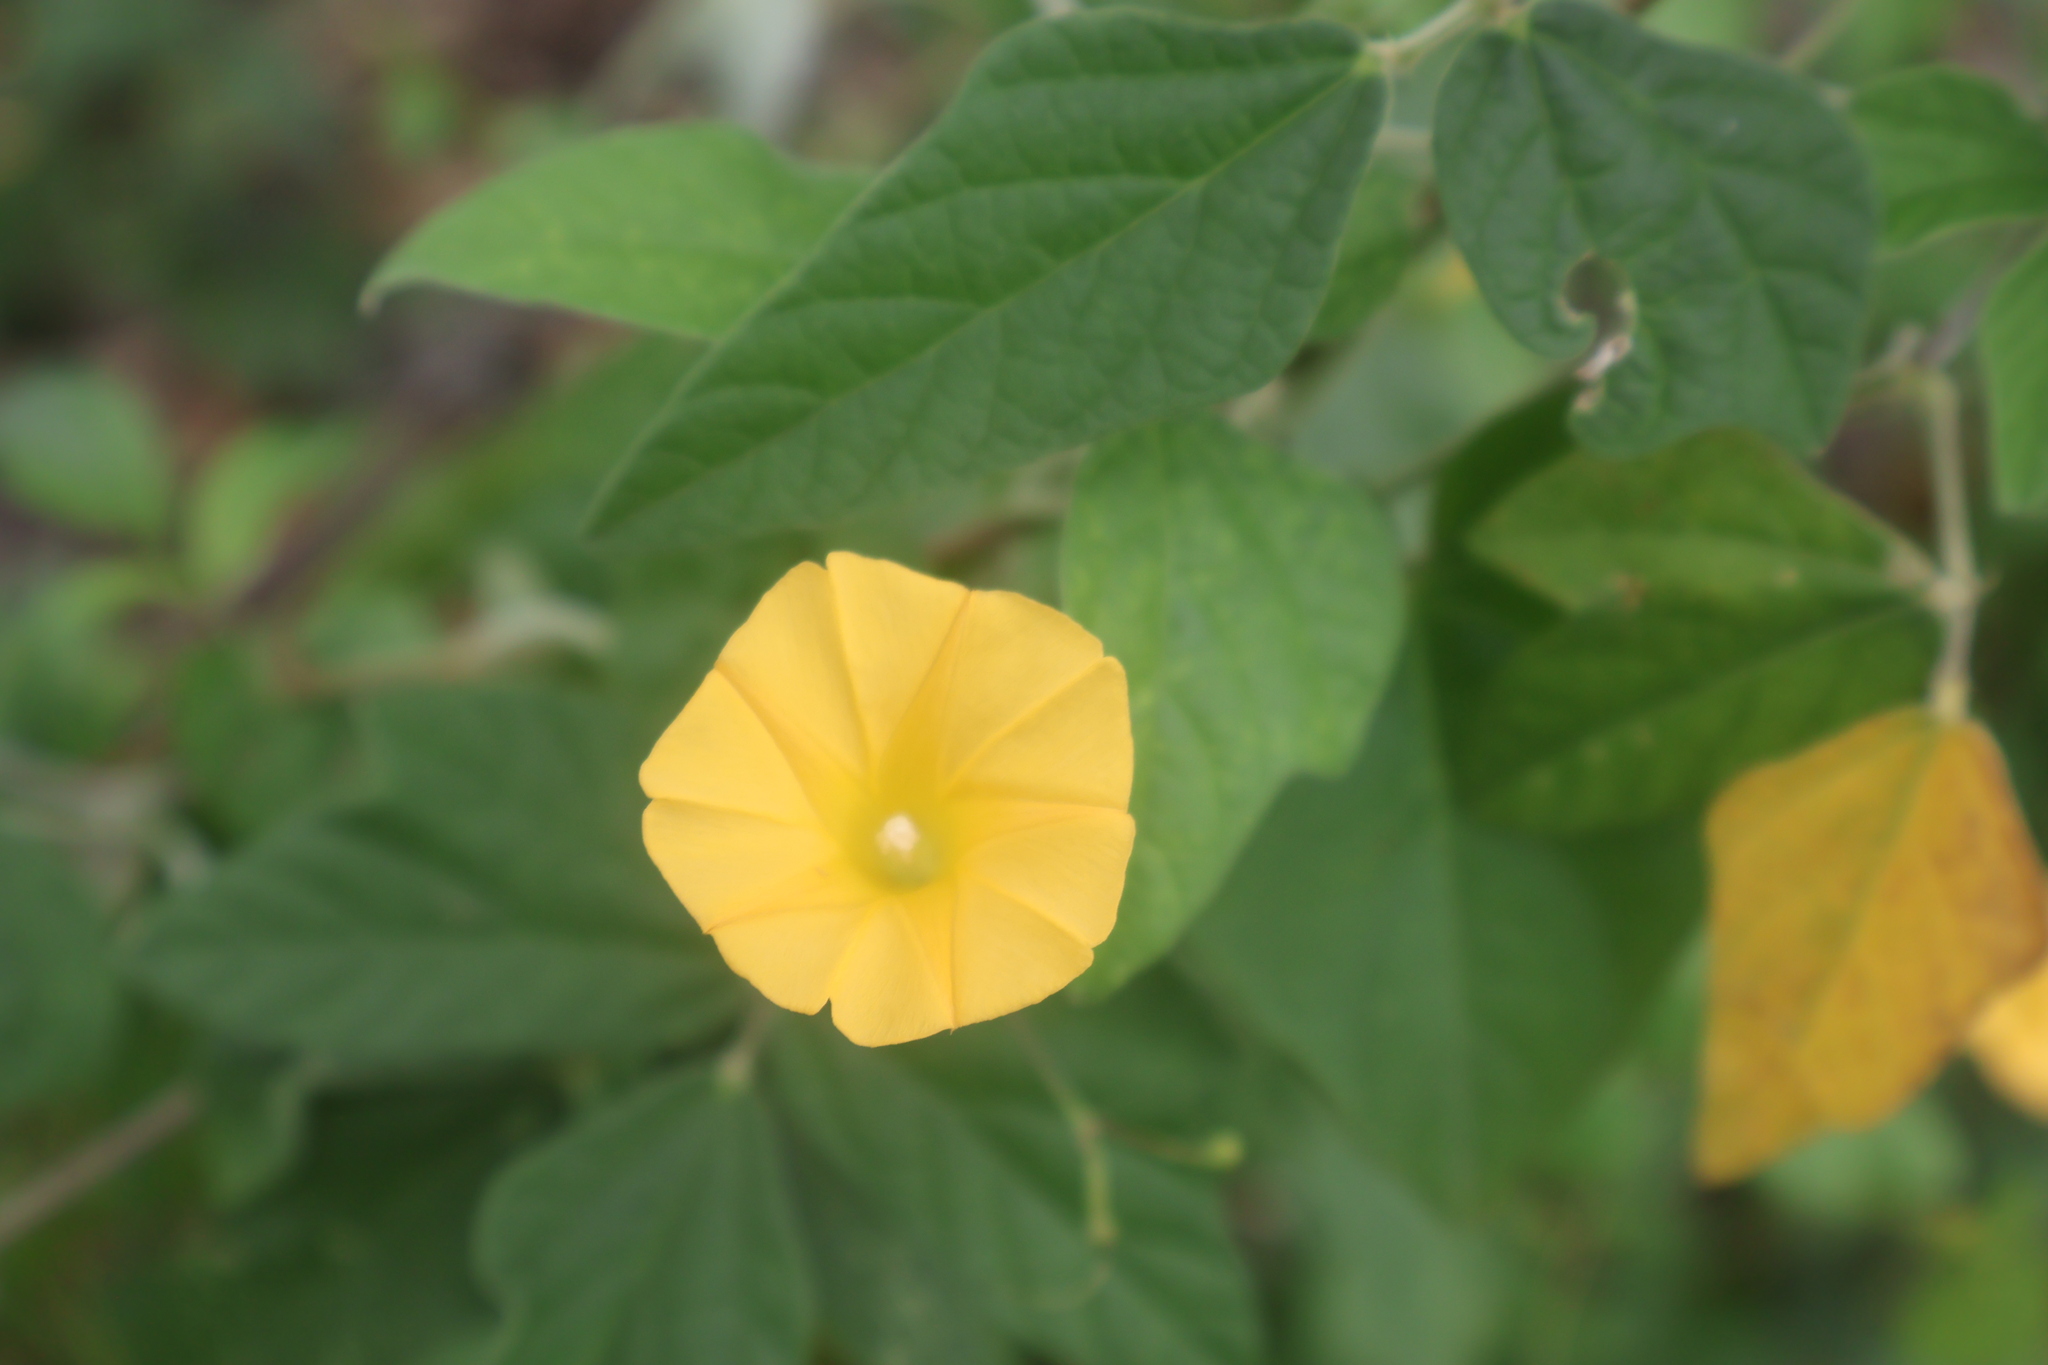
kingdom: Plantae
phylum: Tracheophyta
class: Magnoliopsida
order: Solanales
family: Convolvulaceae
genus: Ipomoea
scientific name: Ipomoea microsepala
